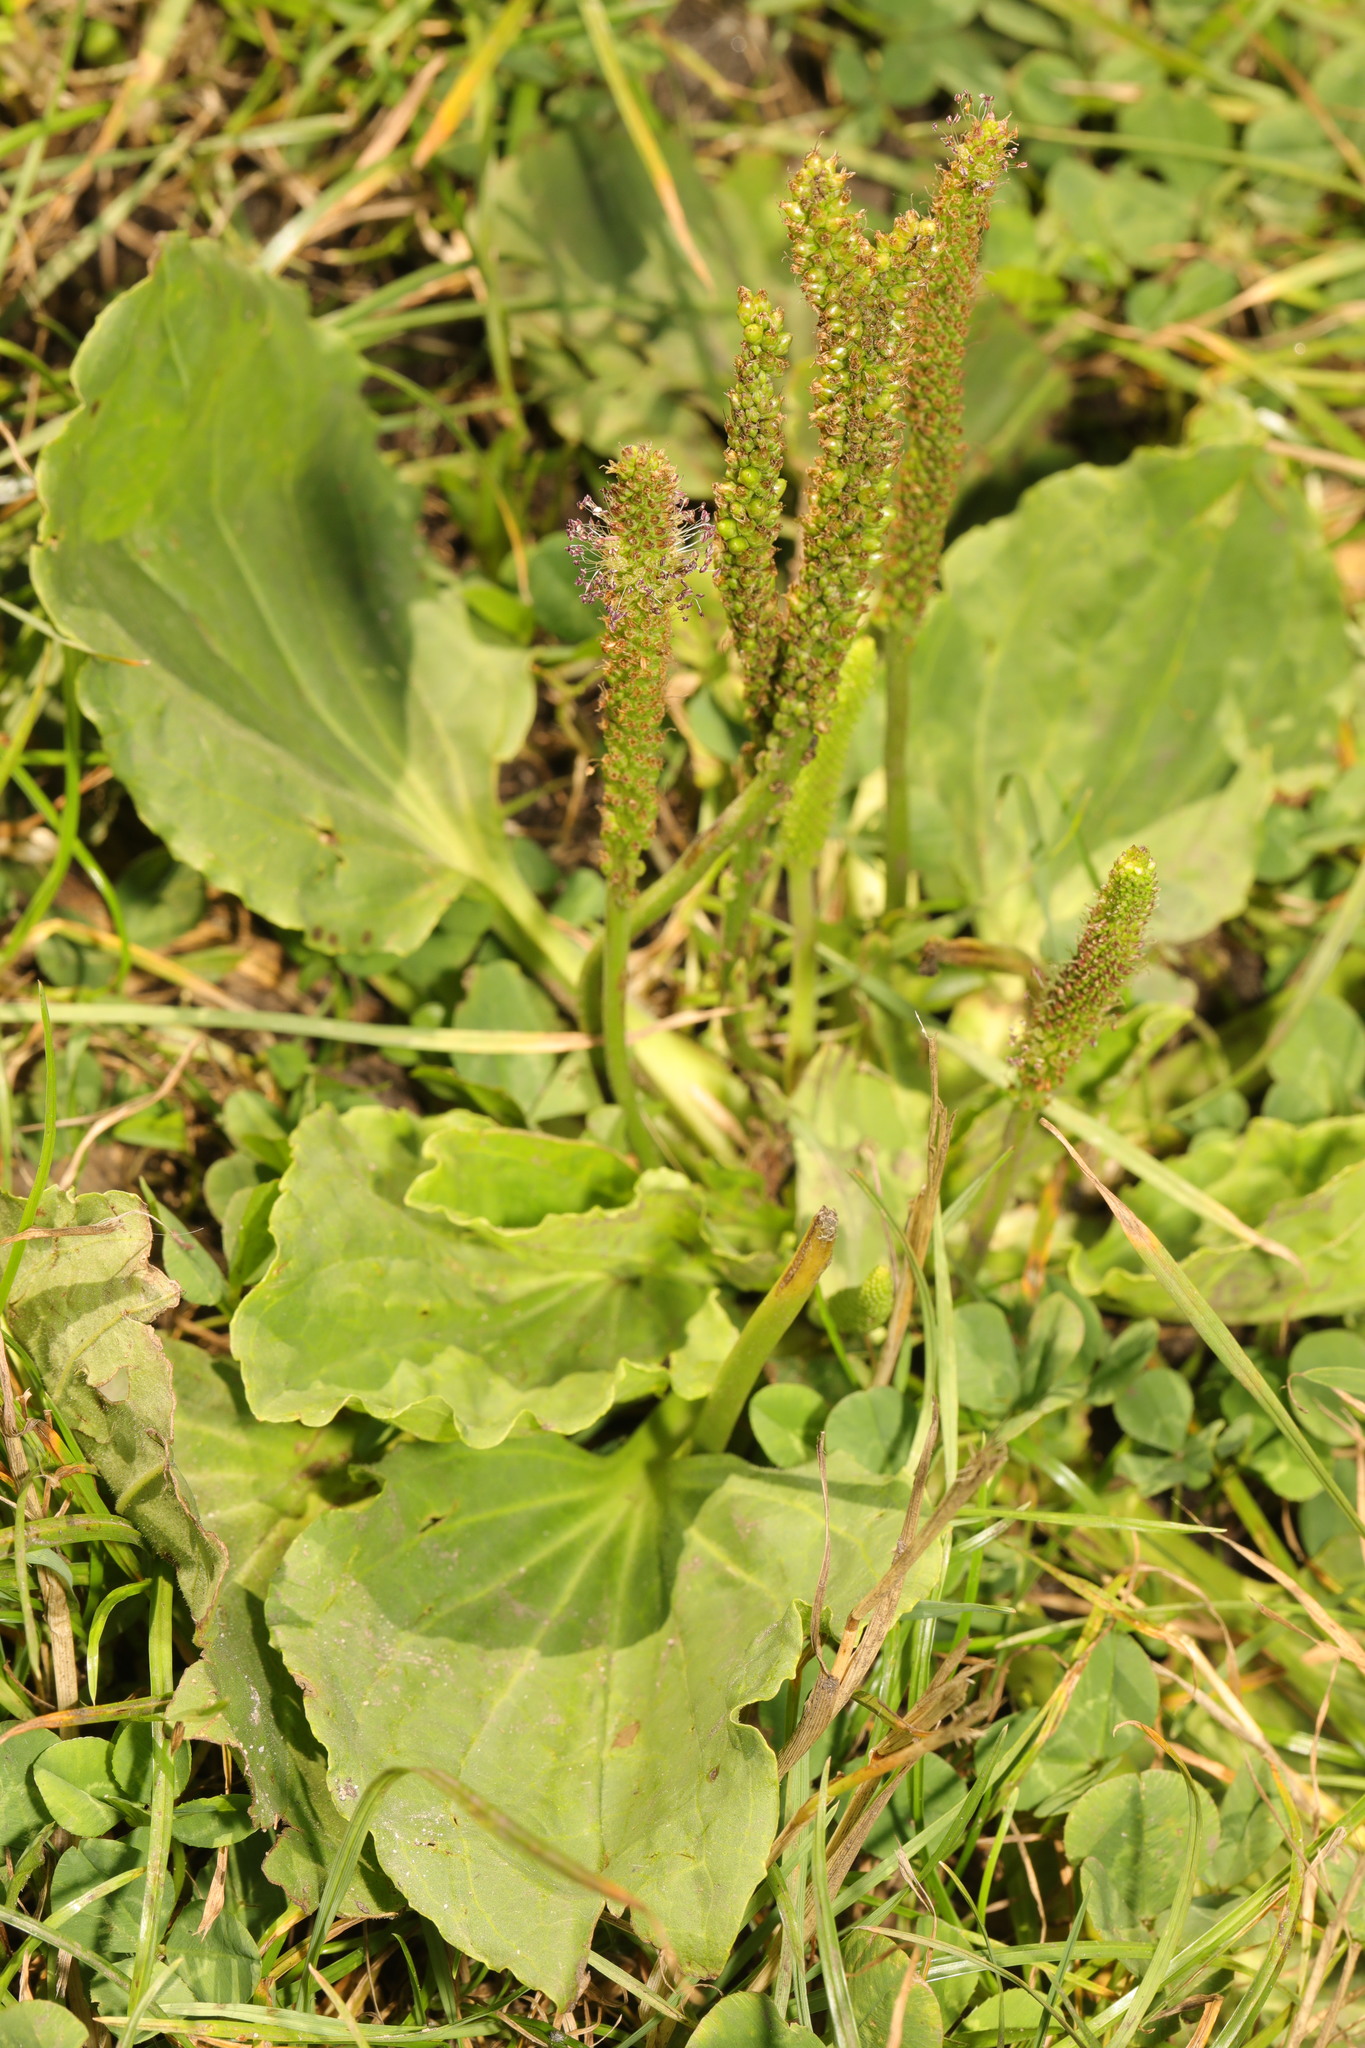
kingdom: Plantae
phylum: Tracheophyta
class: Magnoliopsida
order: Lamiales
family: Plantaginaceae
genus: Plantago
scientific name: Plantago major
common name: Common plantain
